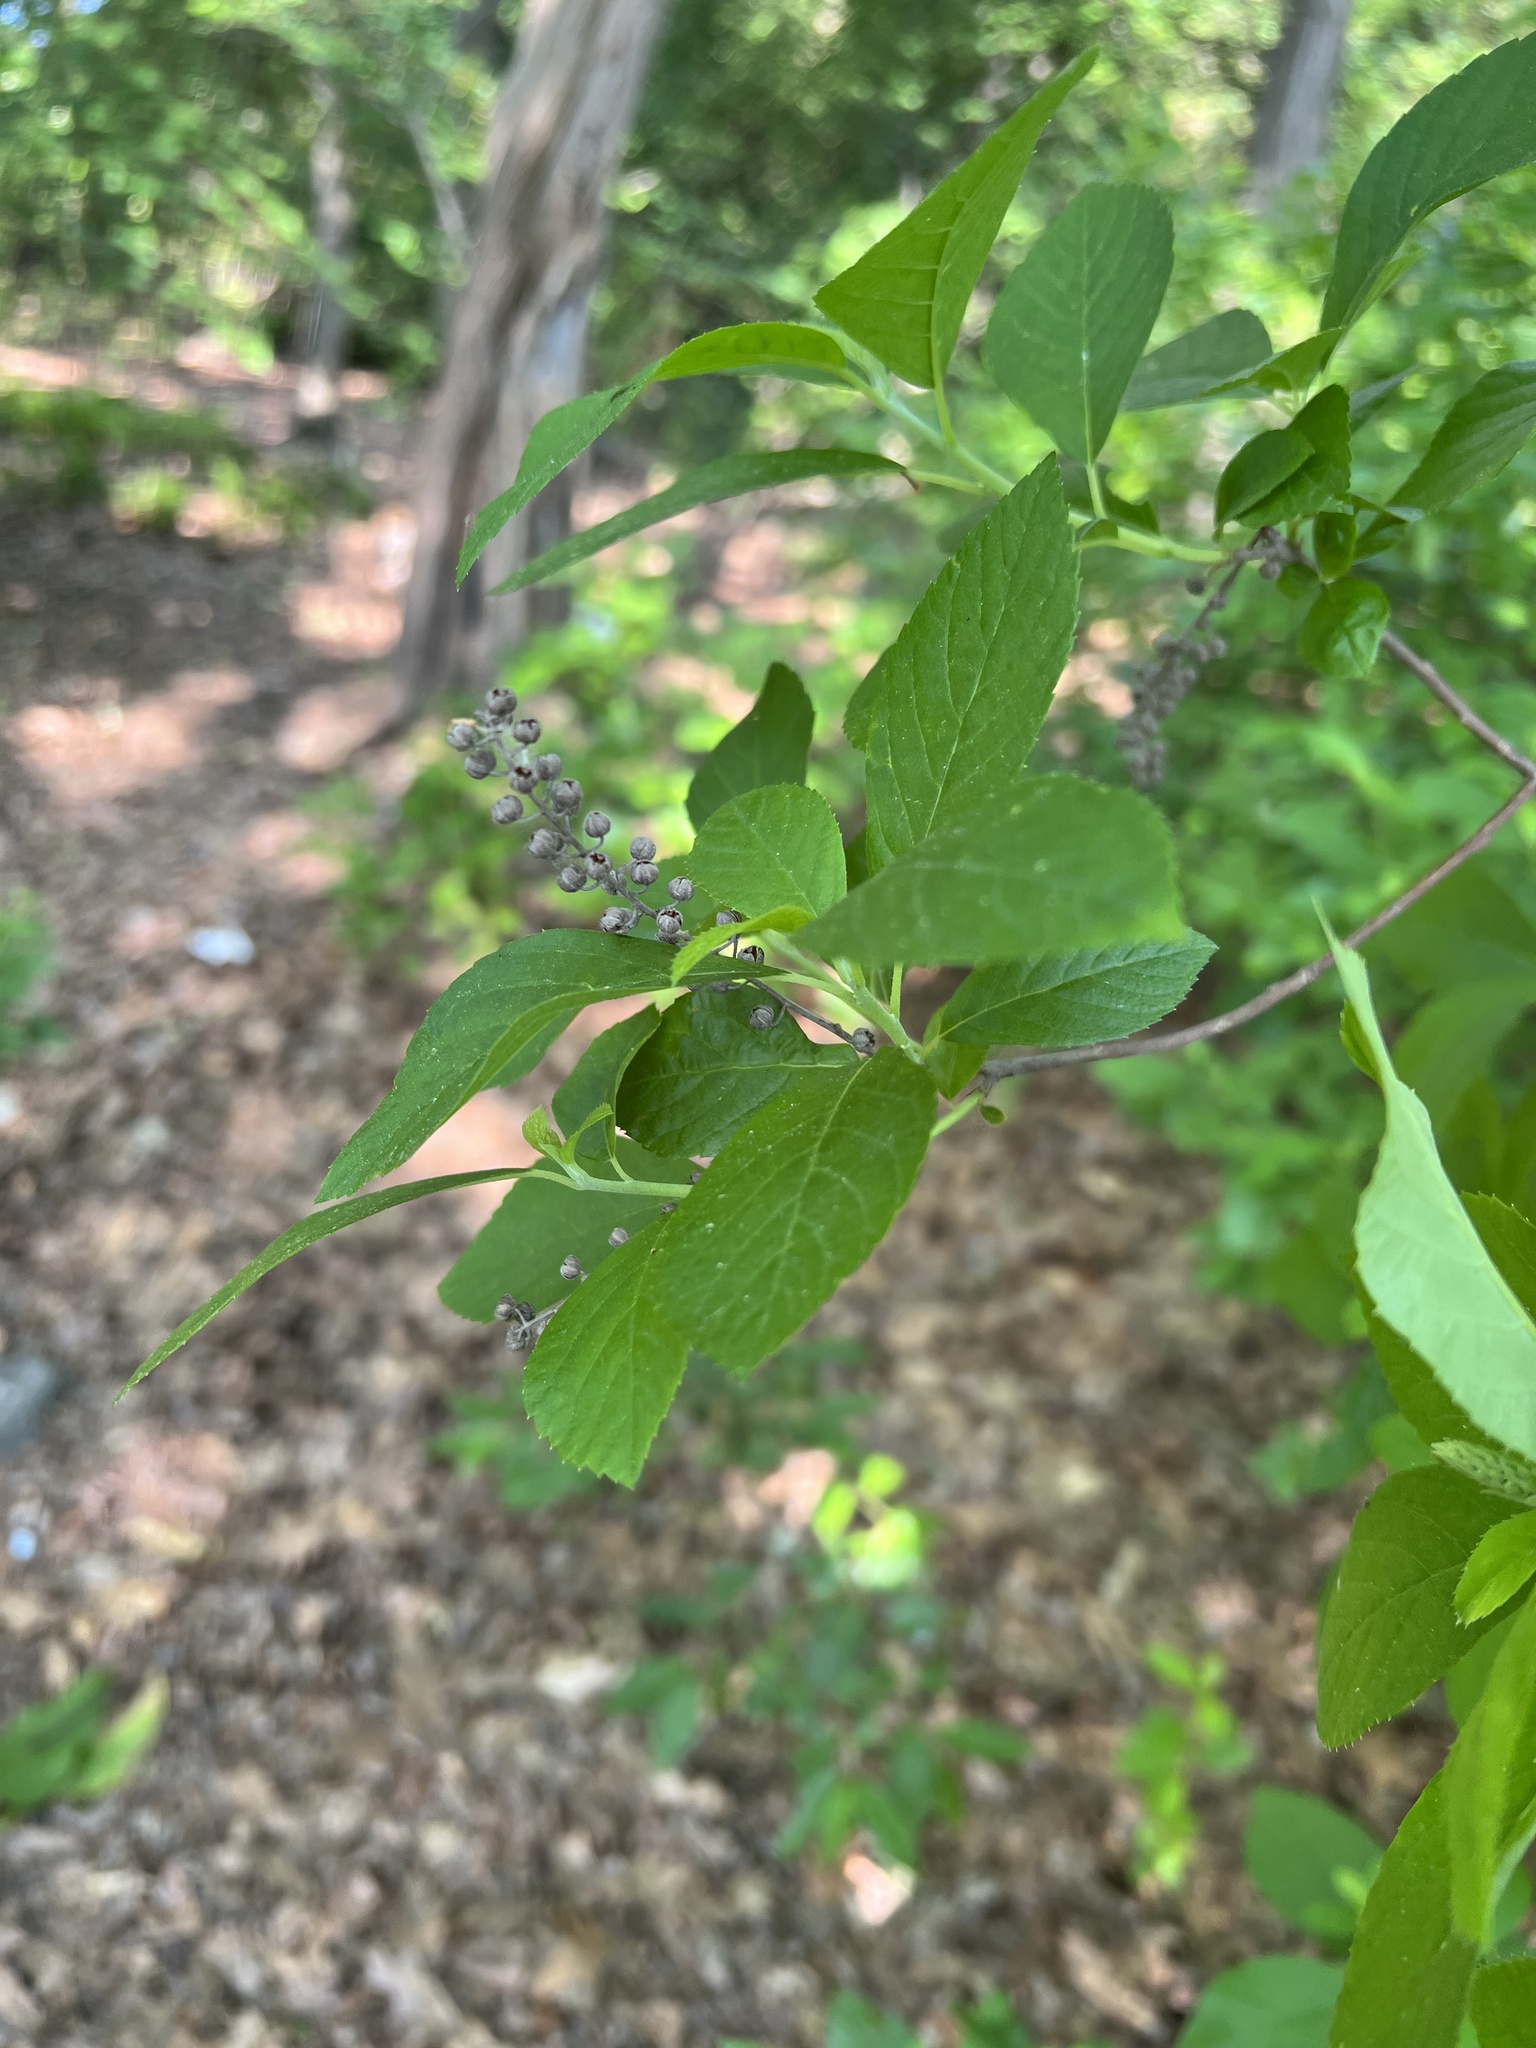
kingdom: Plantae
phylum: Tracheophyta
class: Magnoliopsida
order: Ericales
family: Clethraceae
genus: Clethra
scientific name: Clethra alnifolia
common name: Sweet pepperbush
